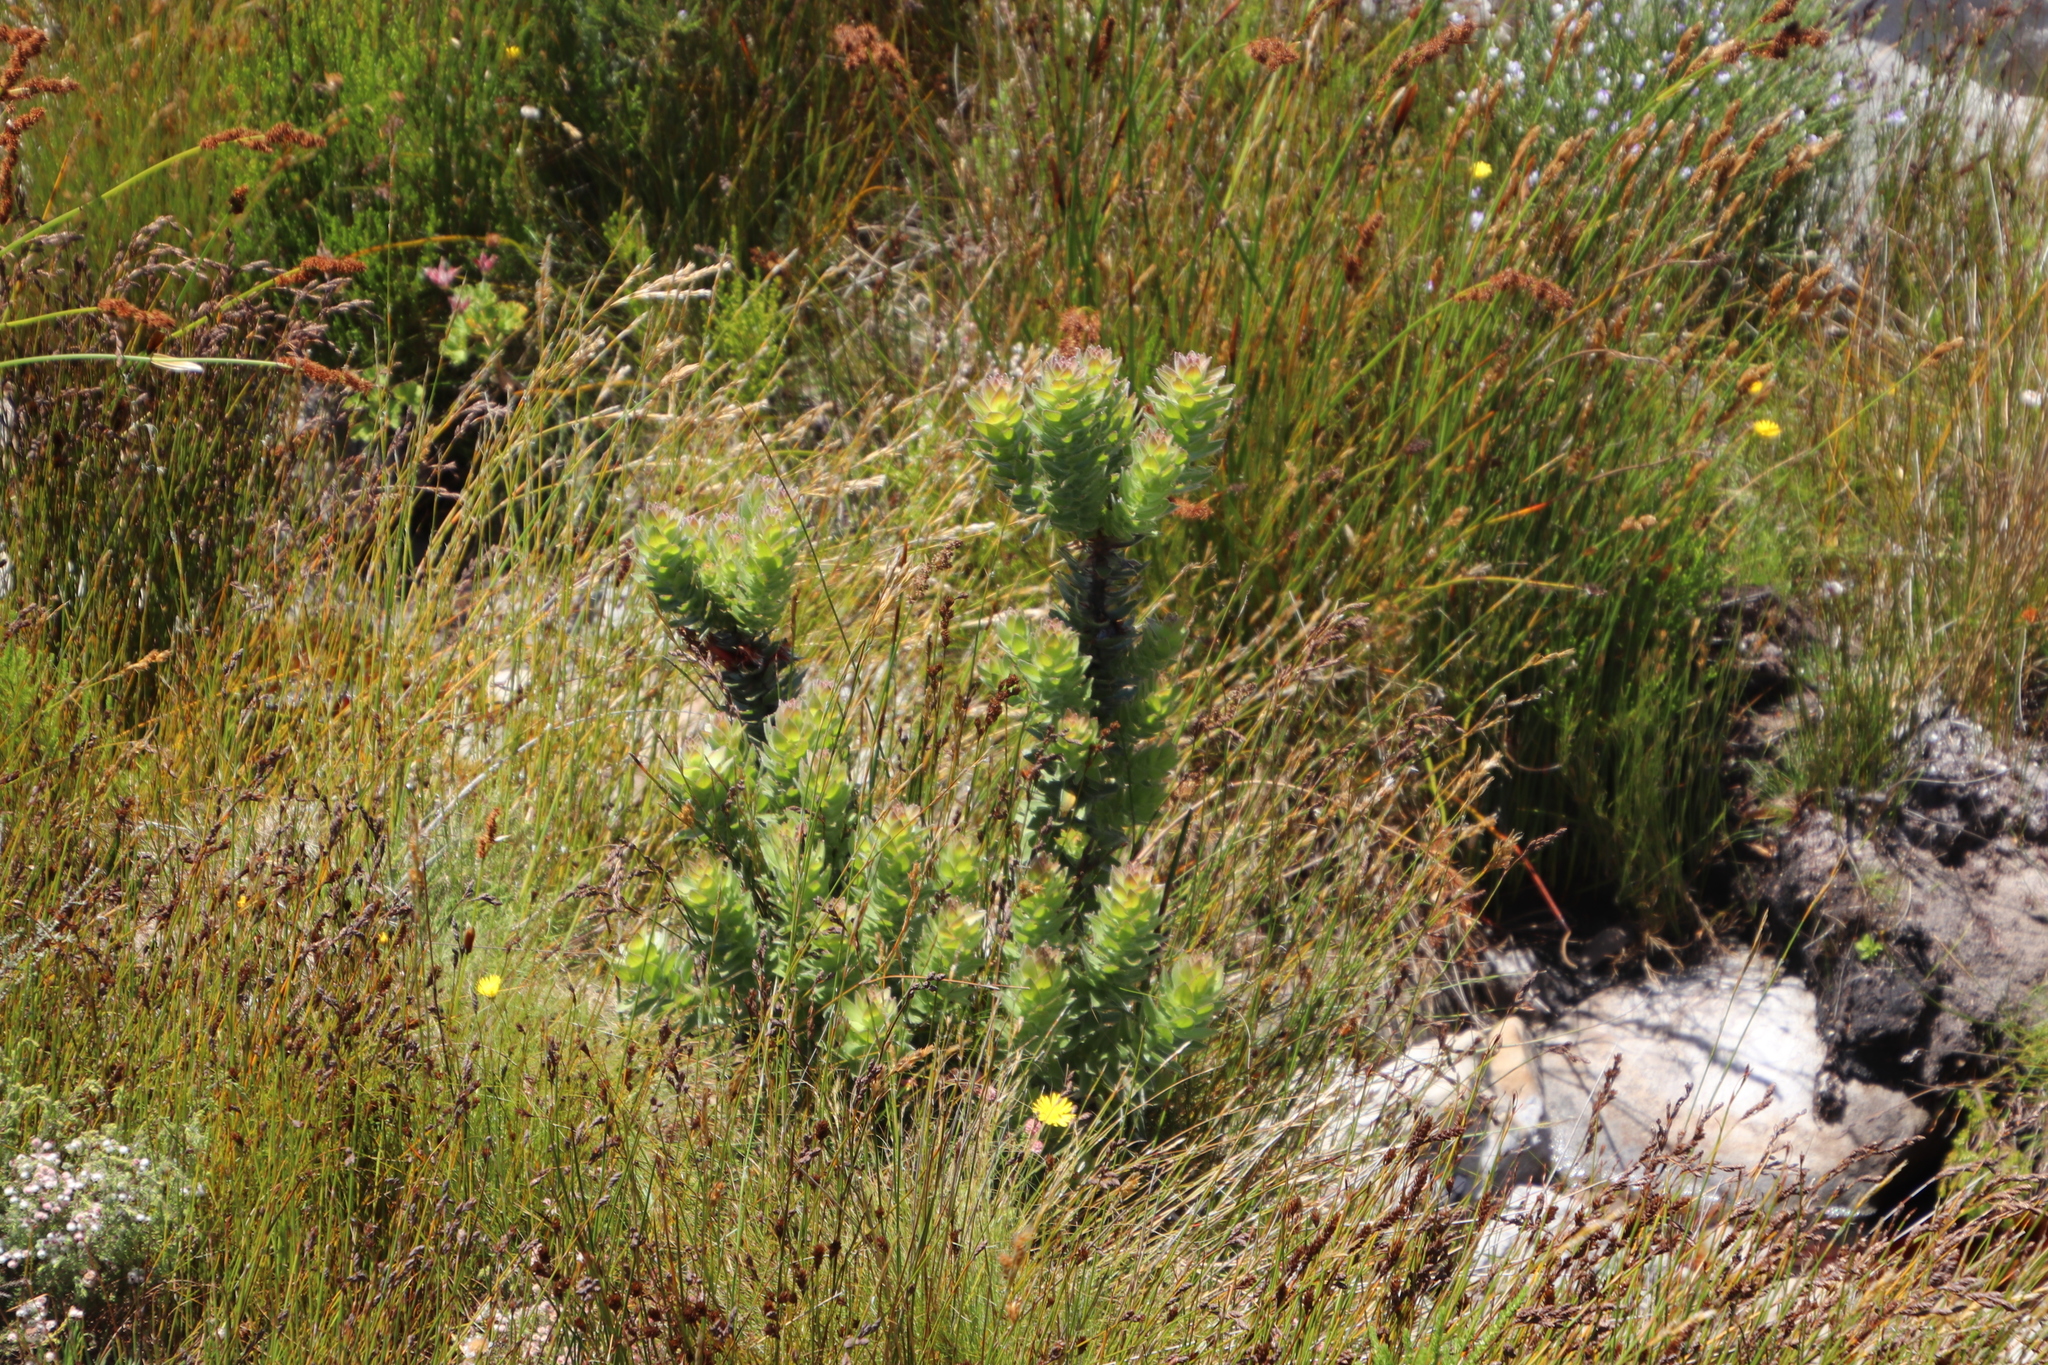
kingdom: Plantae
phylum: Tracheophyta
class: Magnoliopsida
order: Proteales
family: Proteaceae
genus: Mimetes
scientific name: Mimetes hirtus
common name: Marsh pagoda
